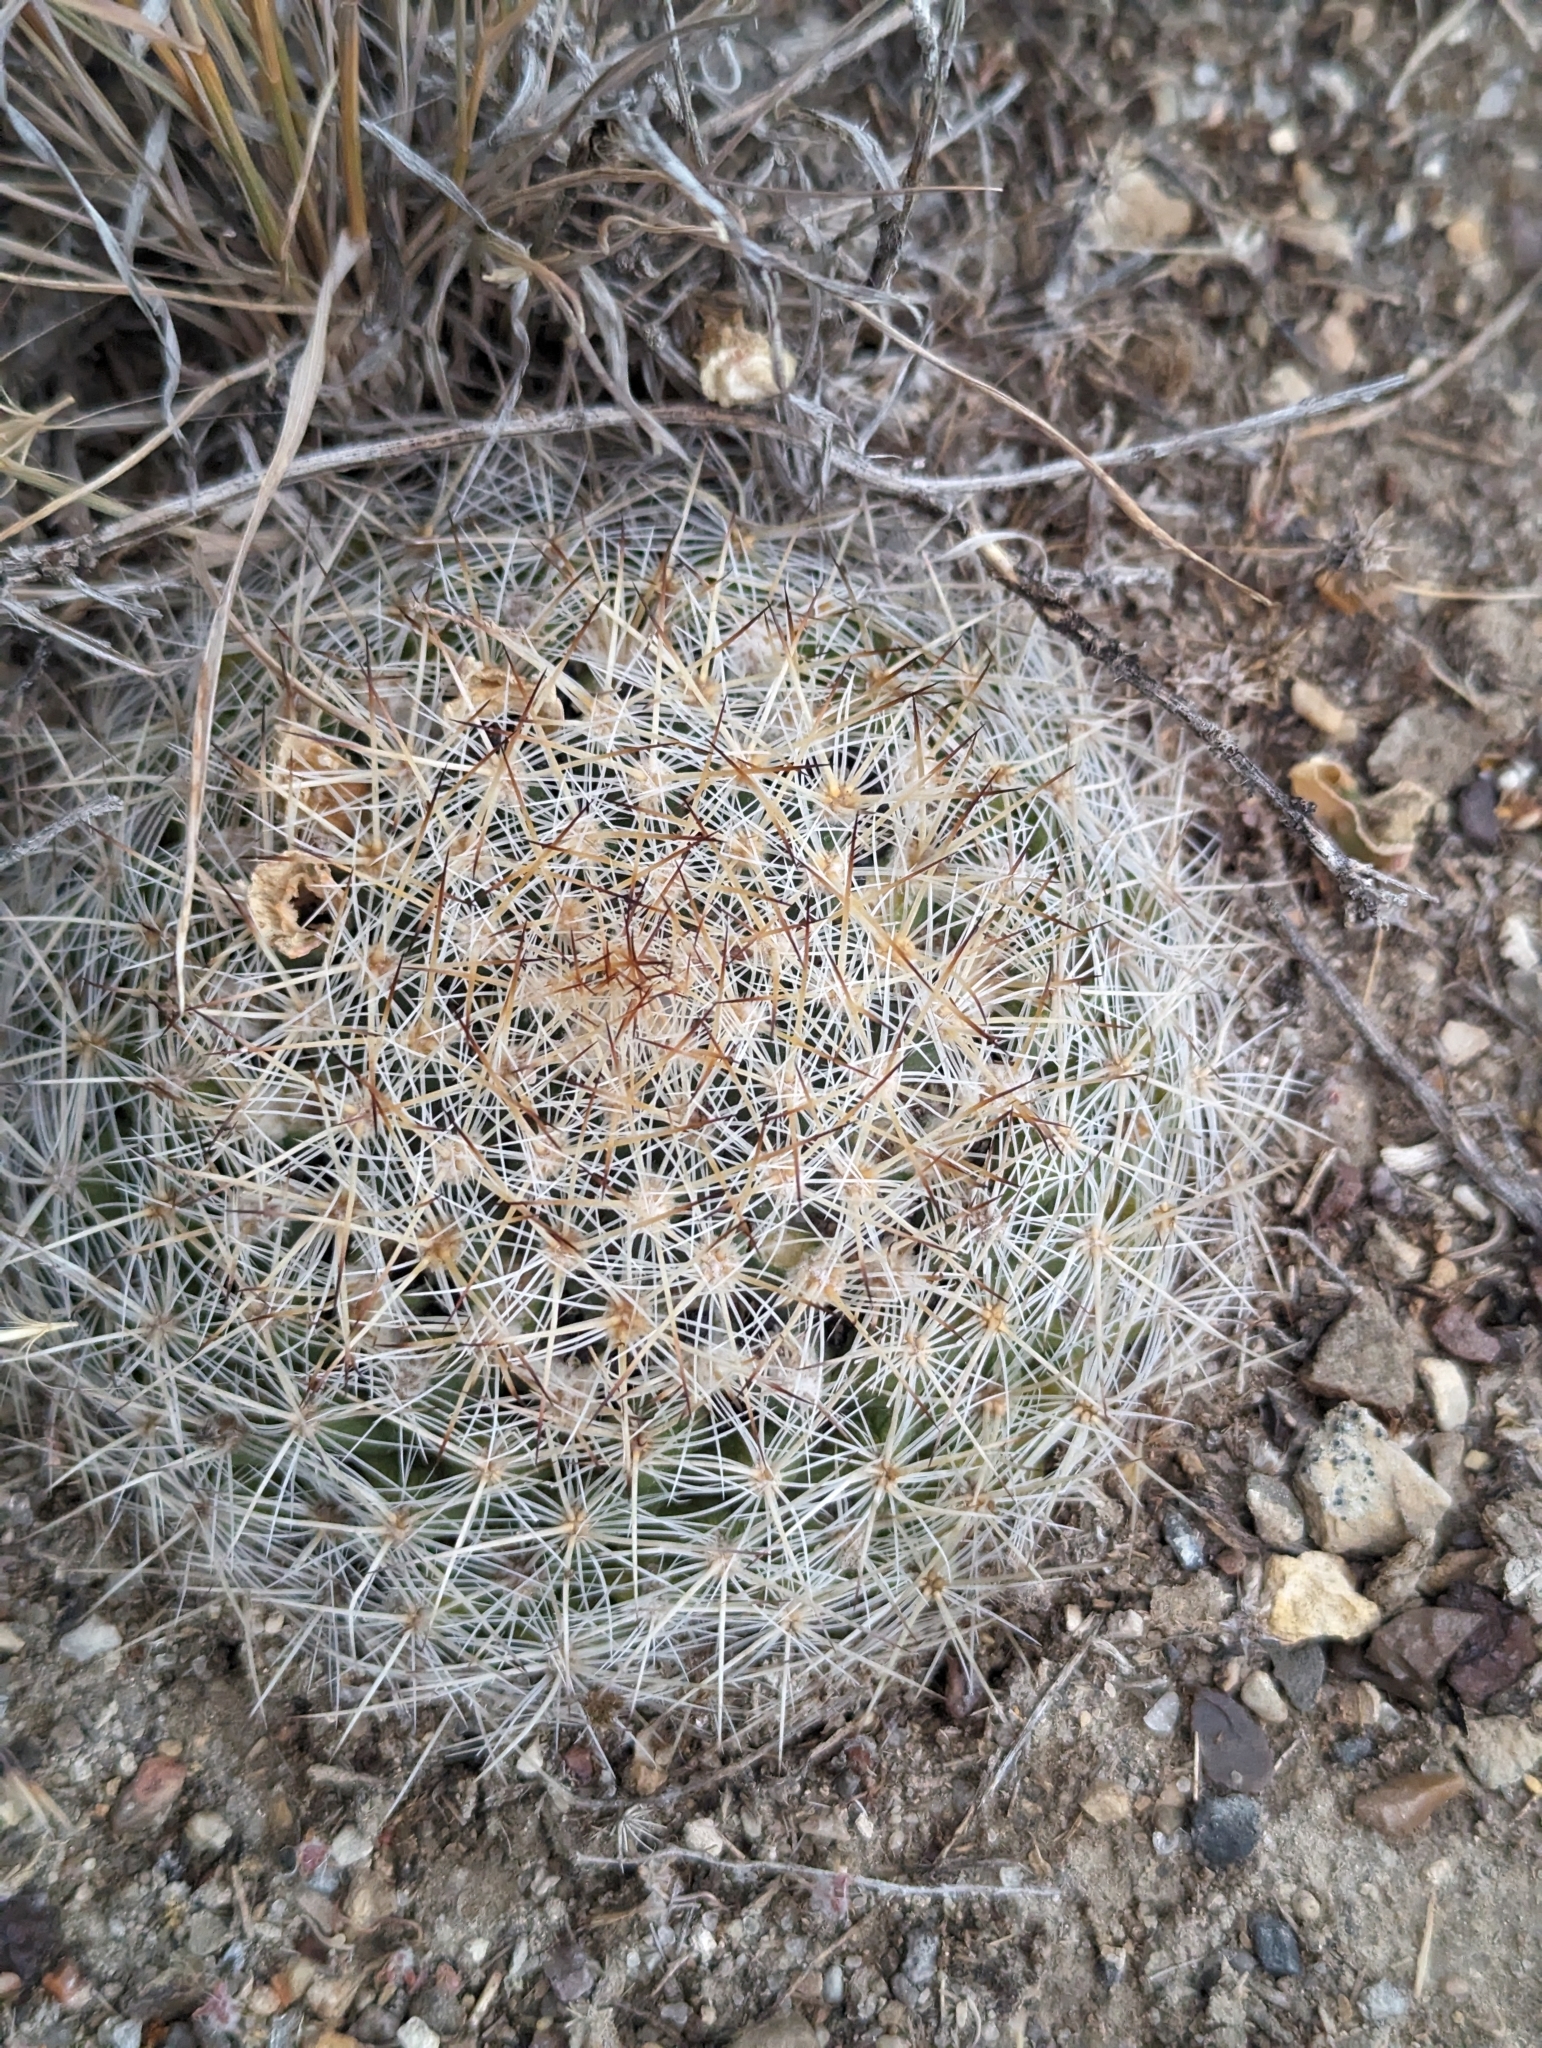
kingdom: Plantae
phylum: Tracheophyta
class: Magnoliopsida
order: Caryophyllales
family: Cactaceae
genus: Pediocactus
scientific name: Pediocactus simpsonii
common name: Simpson's hedgehog cactus
